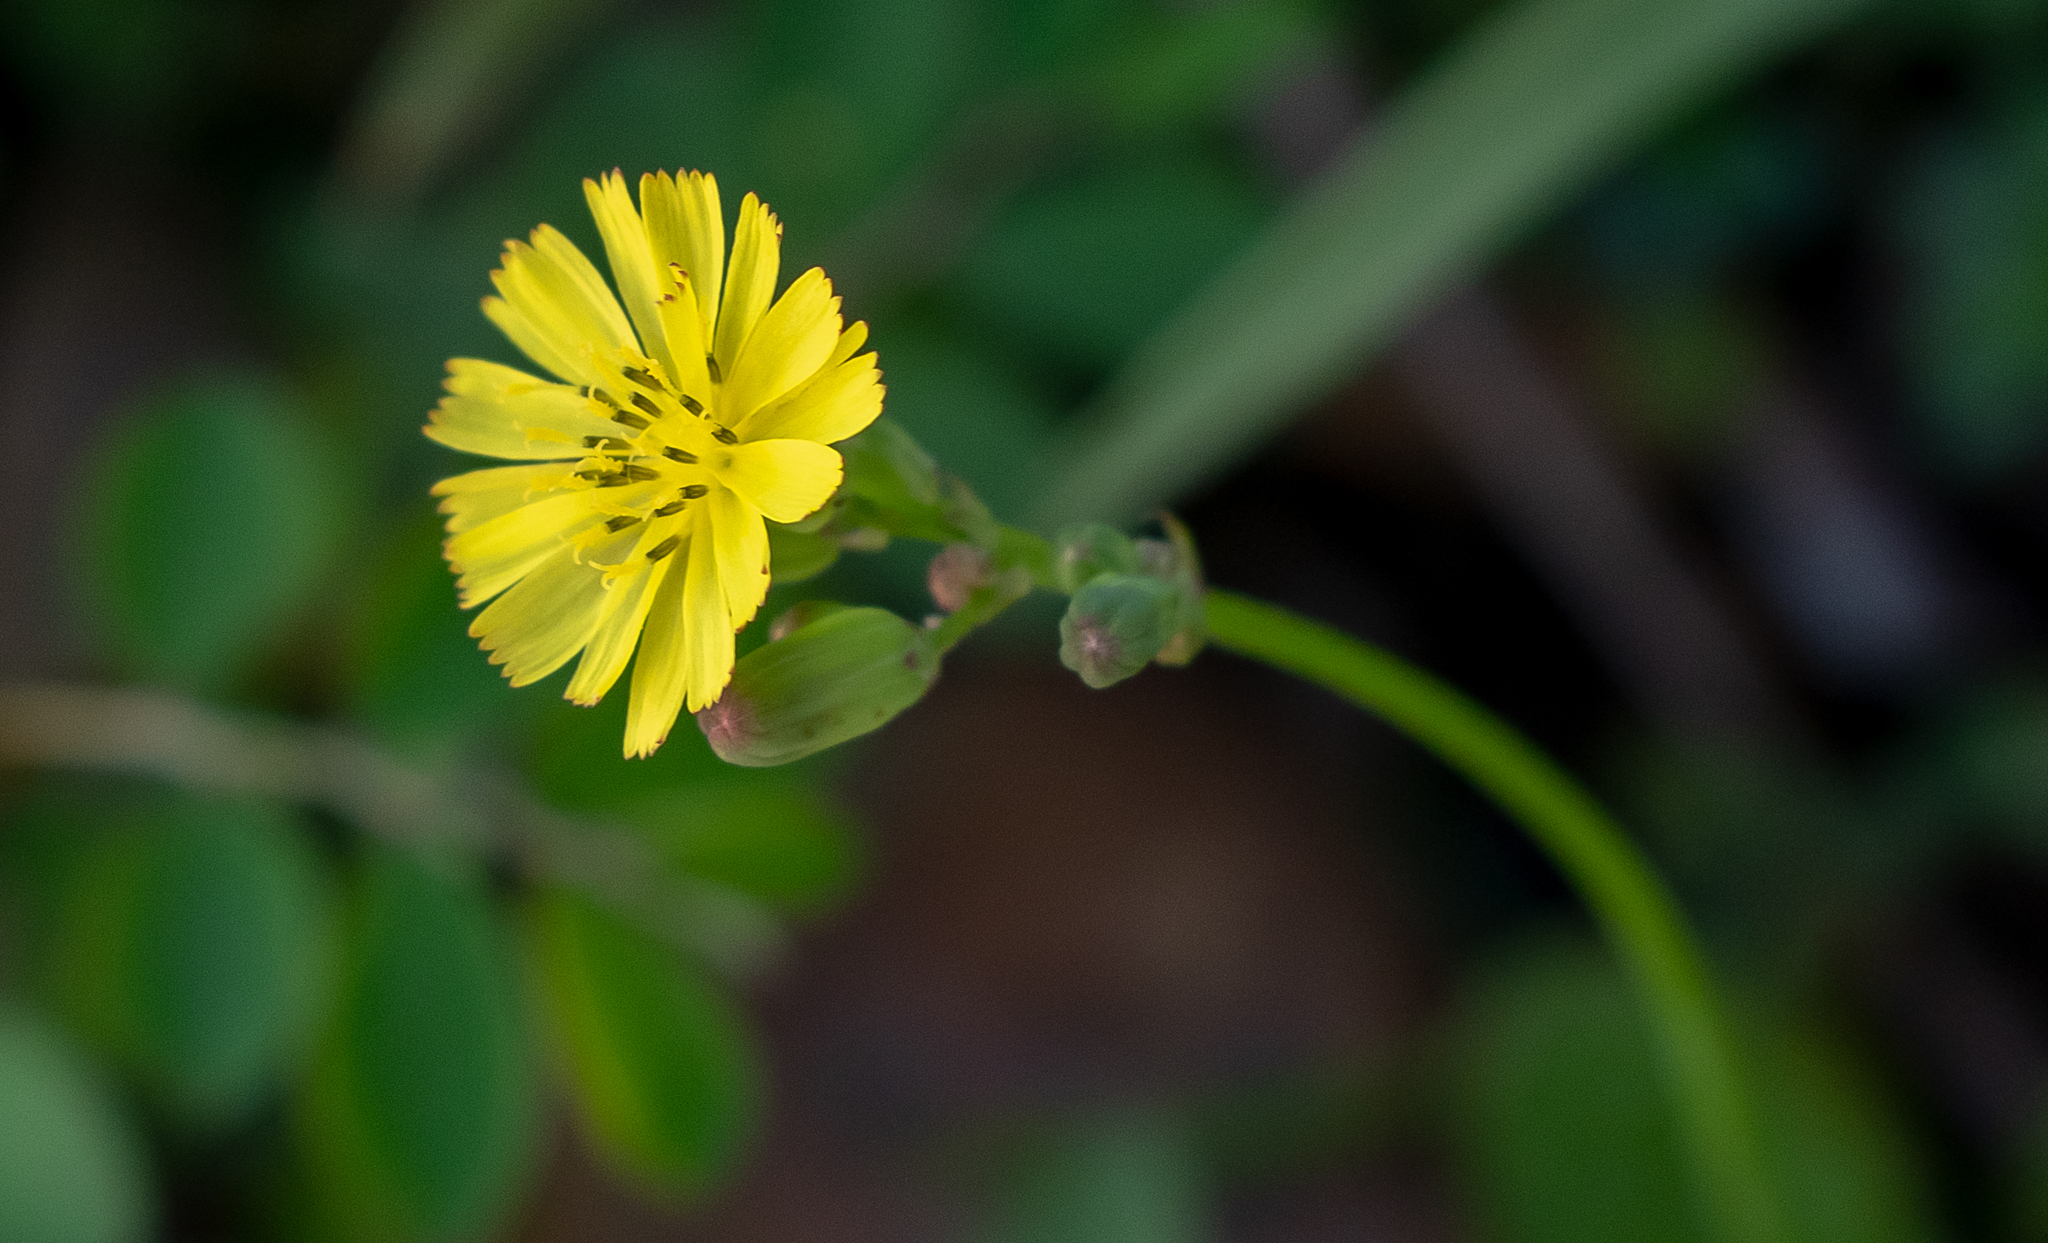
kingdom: Plantae
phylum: Tracheophyta
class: Magnoliopsida
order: Asterales
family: Asteraceae
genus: Youngia
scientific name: Youngia japonica
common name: Oriental false hawksbeard
